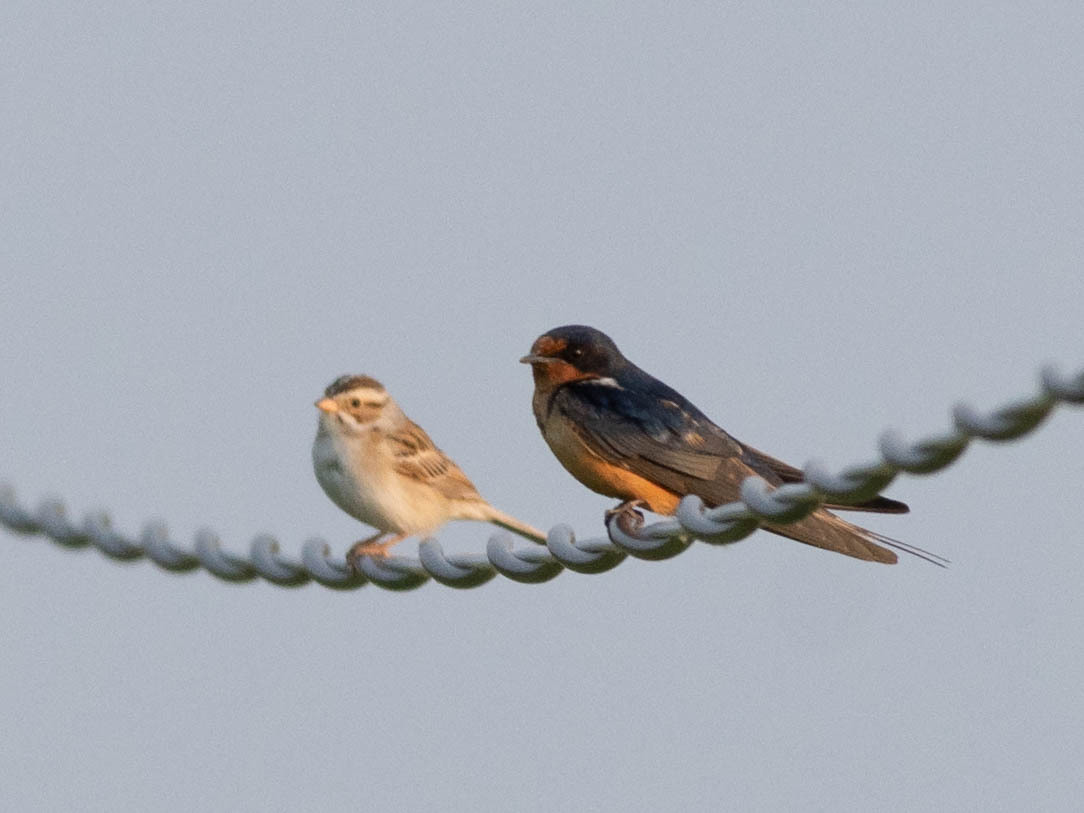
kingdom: Animalia
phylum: Chordata
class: Aves
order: Passeriformes
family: Passerellidae
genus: Spizella
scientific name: Spizella pallida
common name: Clay-colored sparrow
